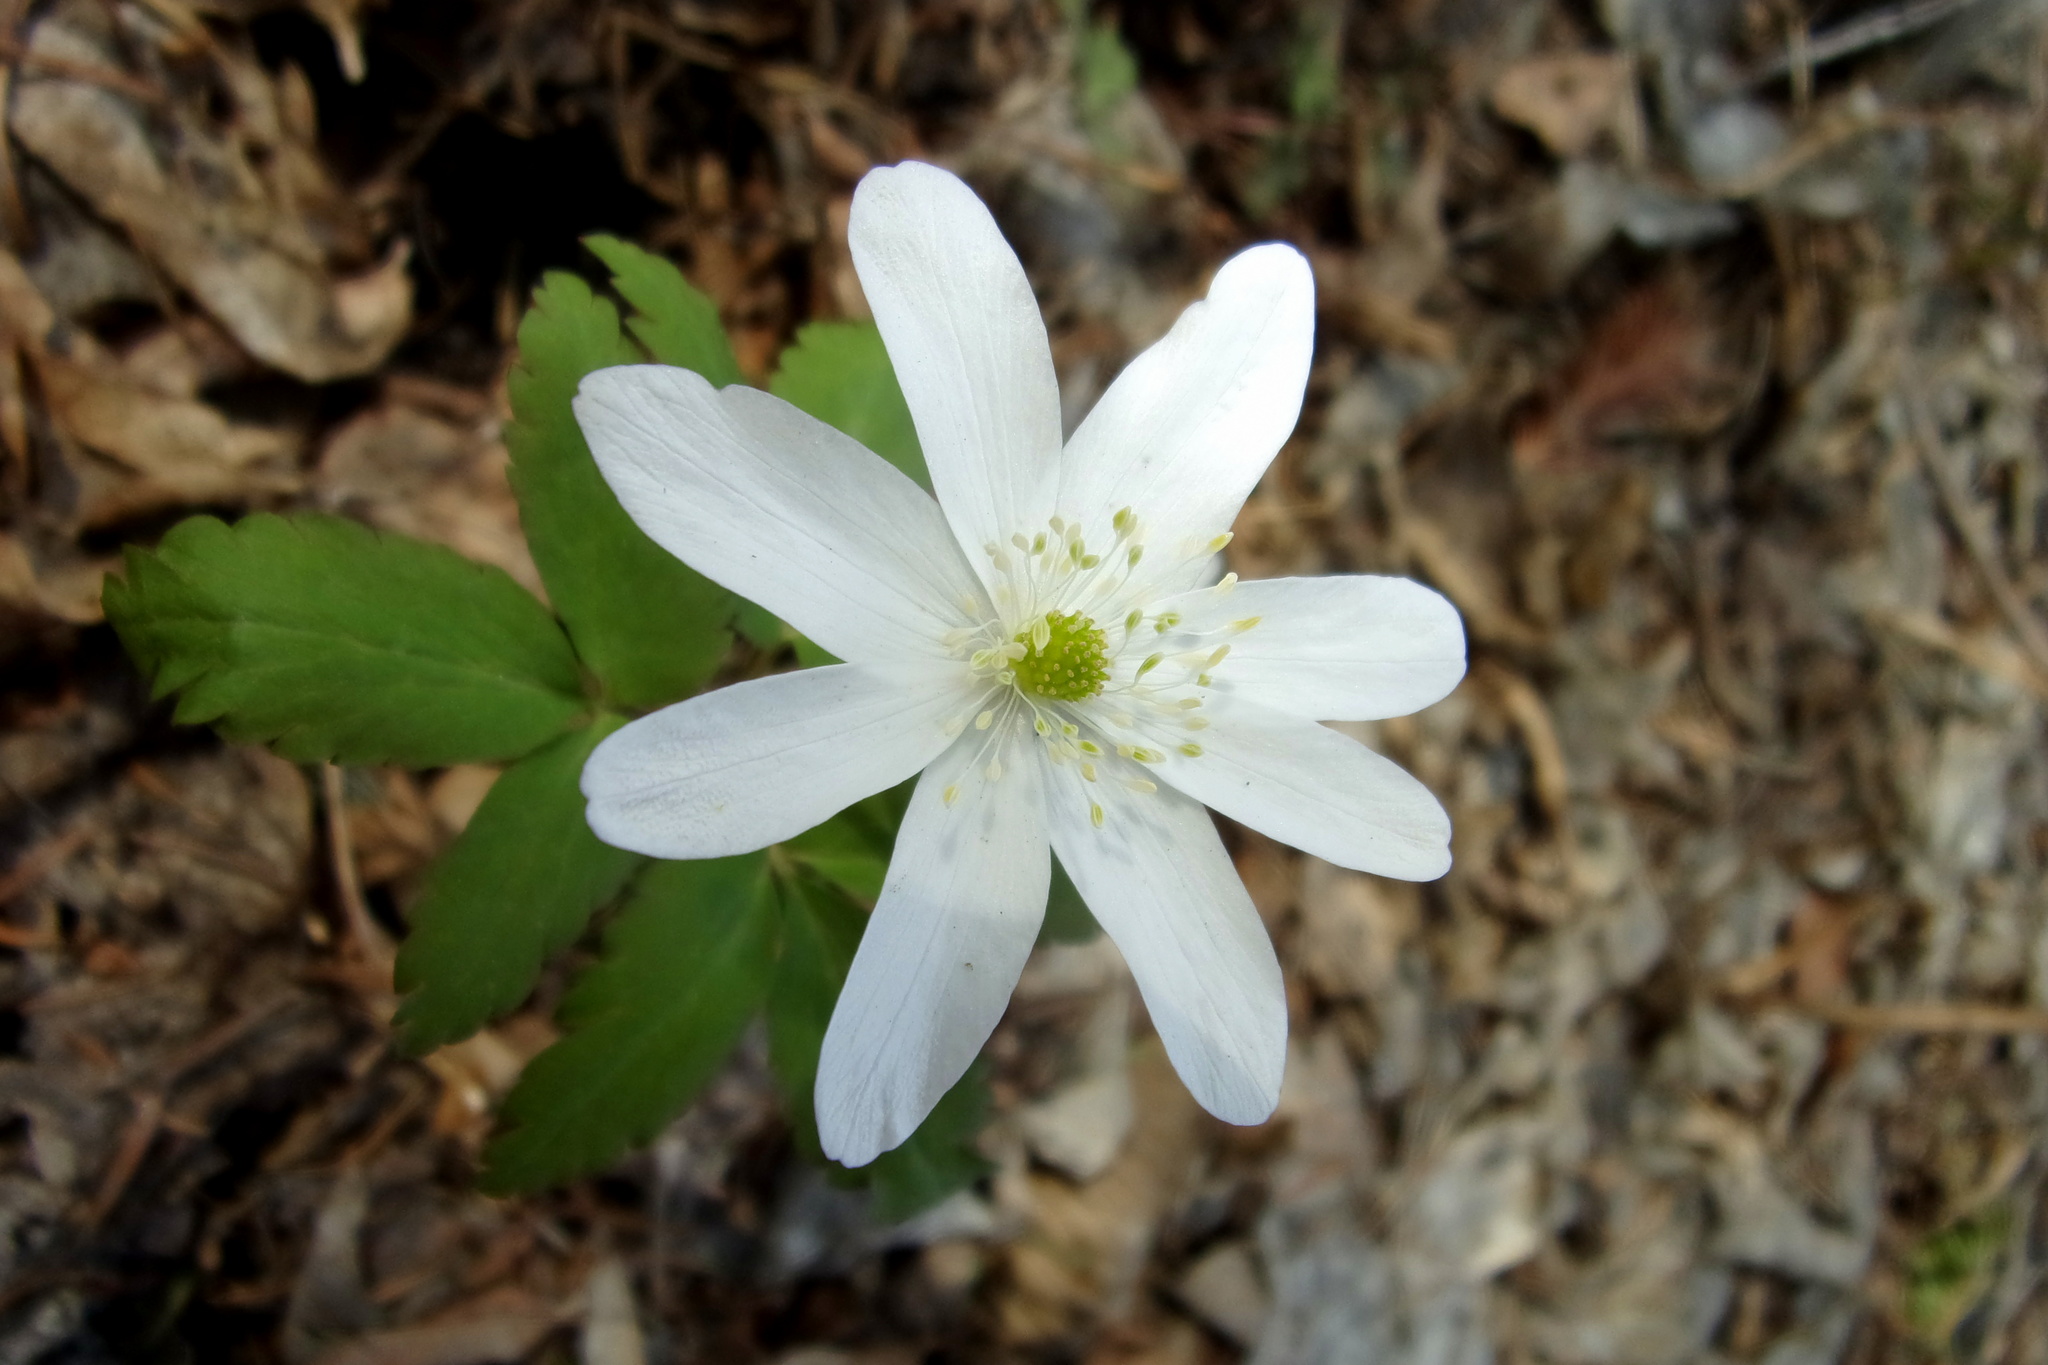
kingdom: Plantae
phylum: Tracheophyta
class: Magnoliopsida
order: Ranunculales
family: Ranunculaceae
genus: Anemone
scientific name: Anemone altaica
